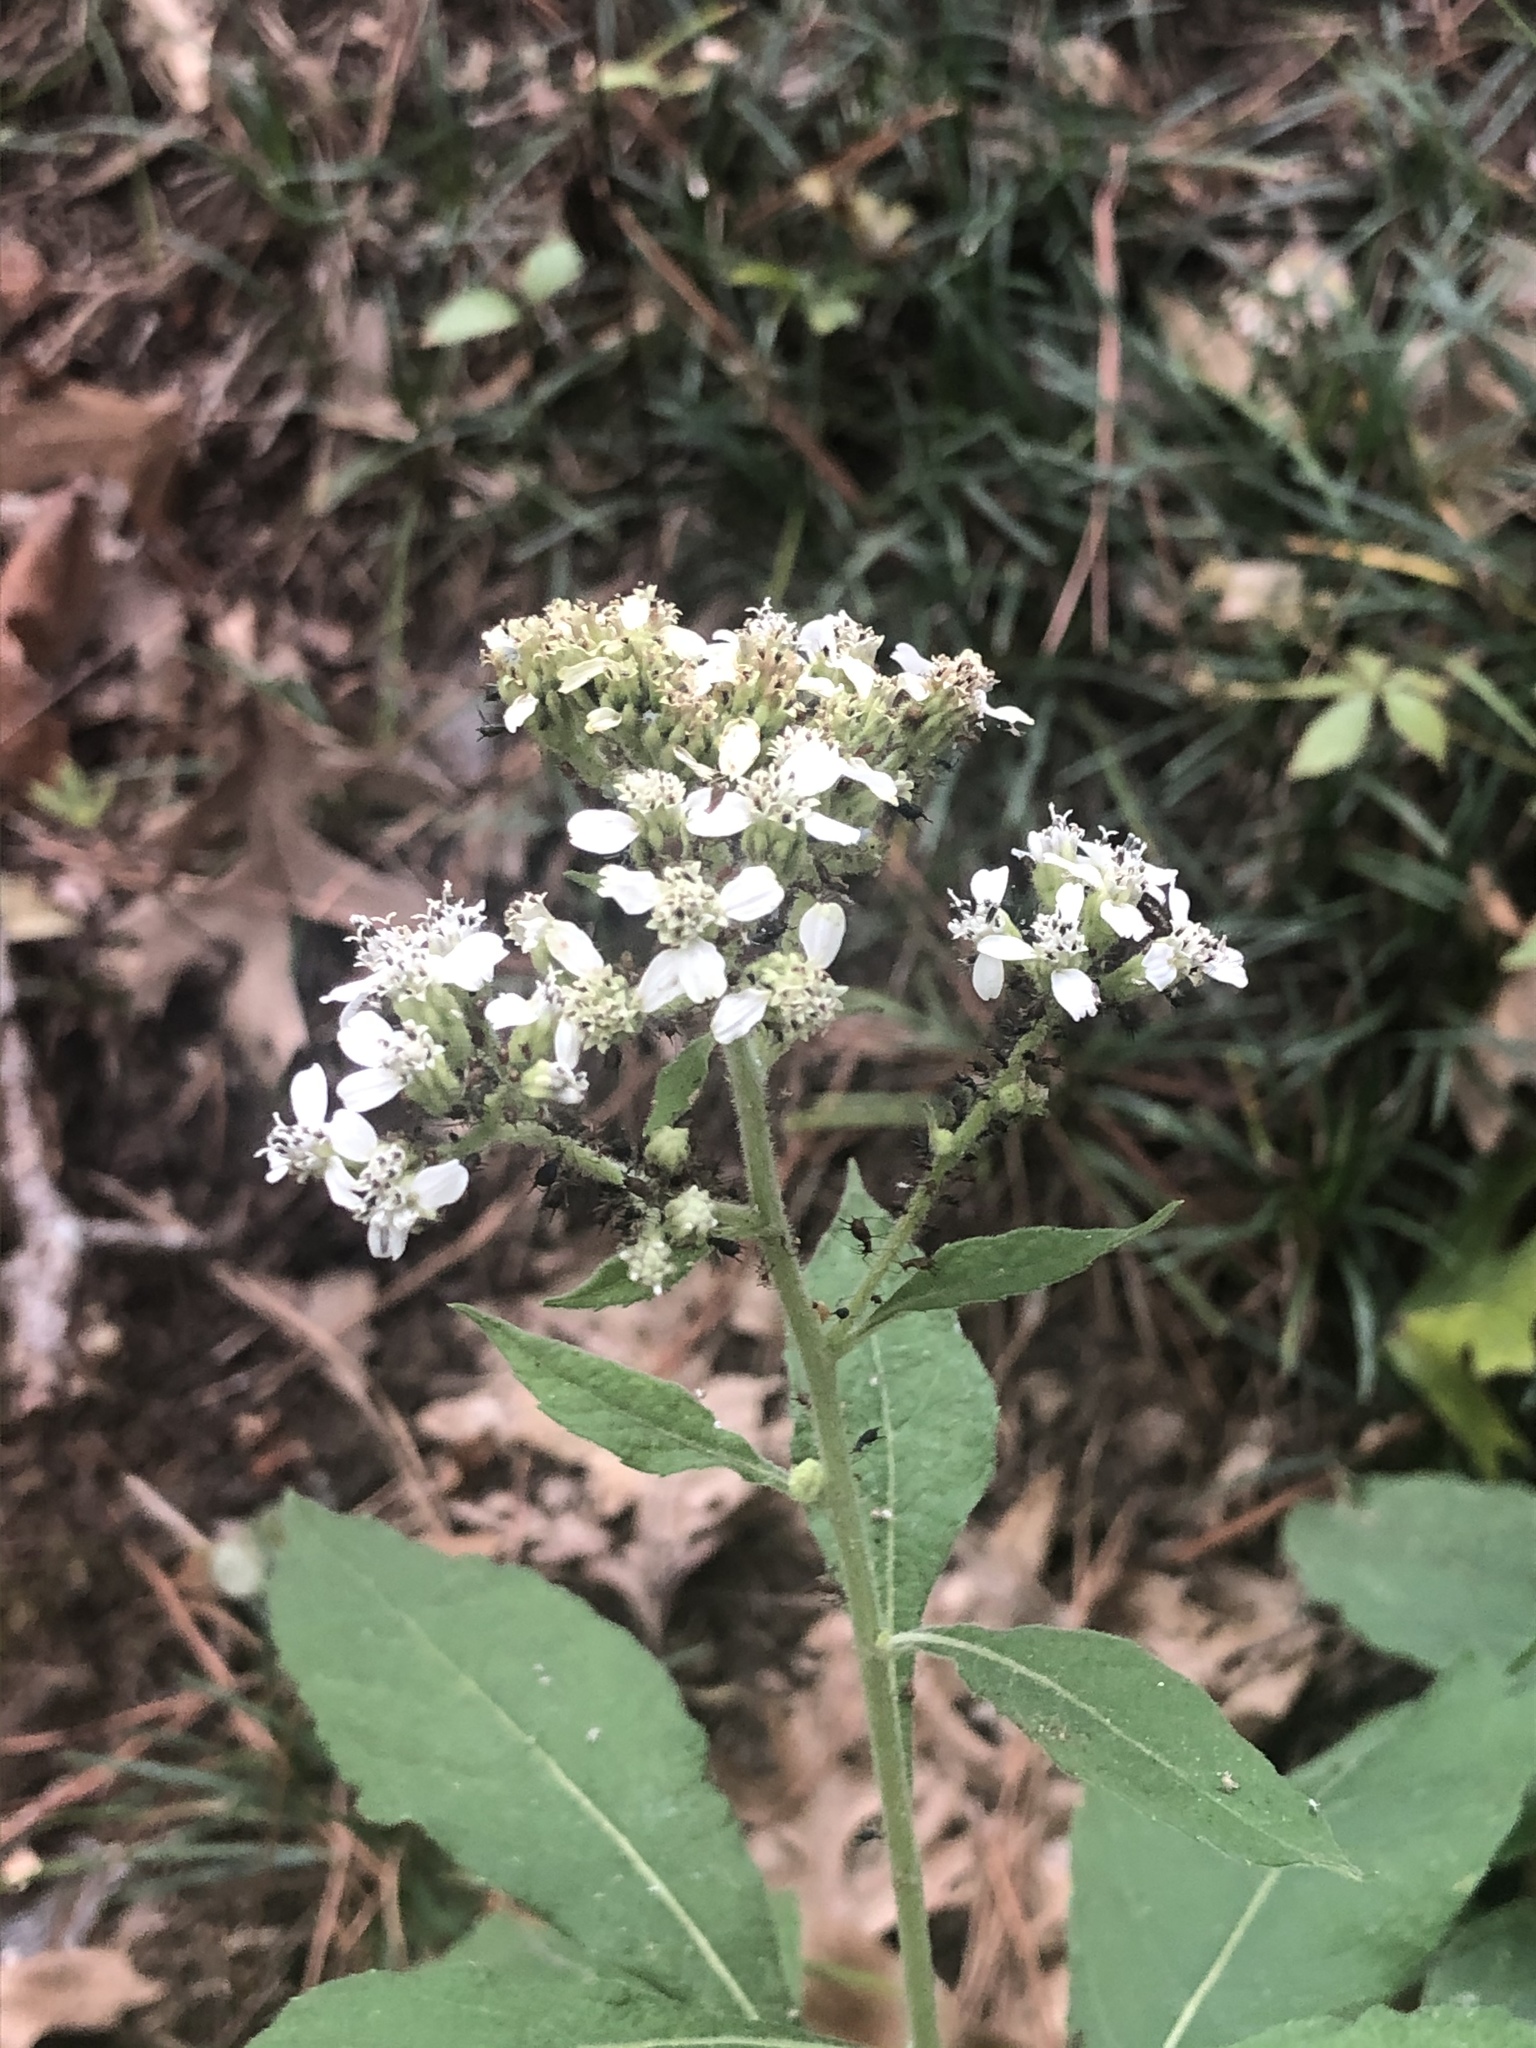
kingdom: Plantae
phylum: Tracheophyta
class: Magnoliopsida
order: Asterales
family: Asteraceae
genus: Verbesina
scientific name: Verbesina virginica
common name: Frostweed
